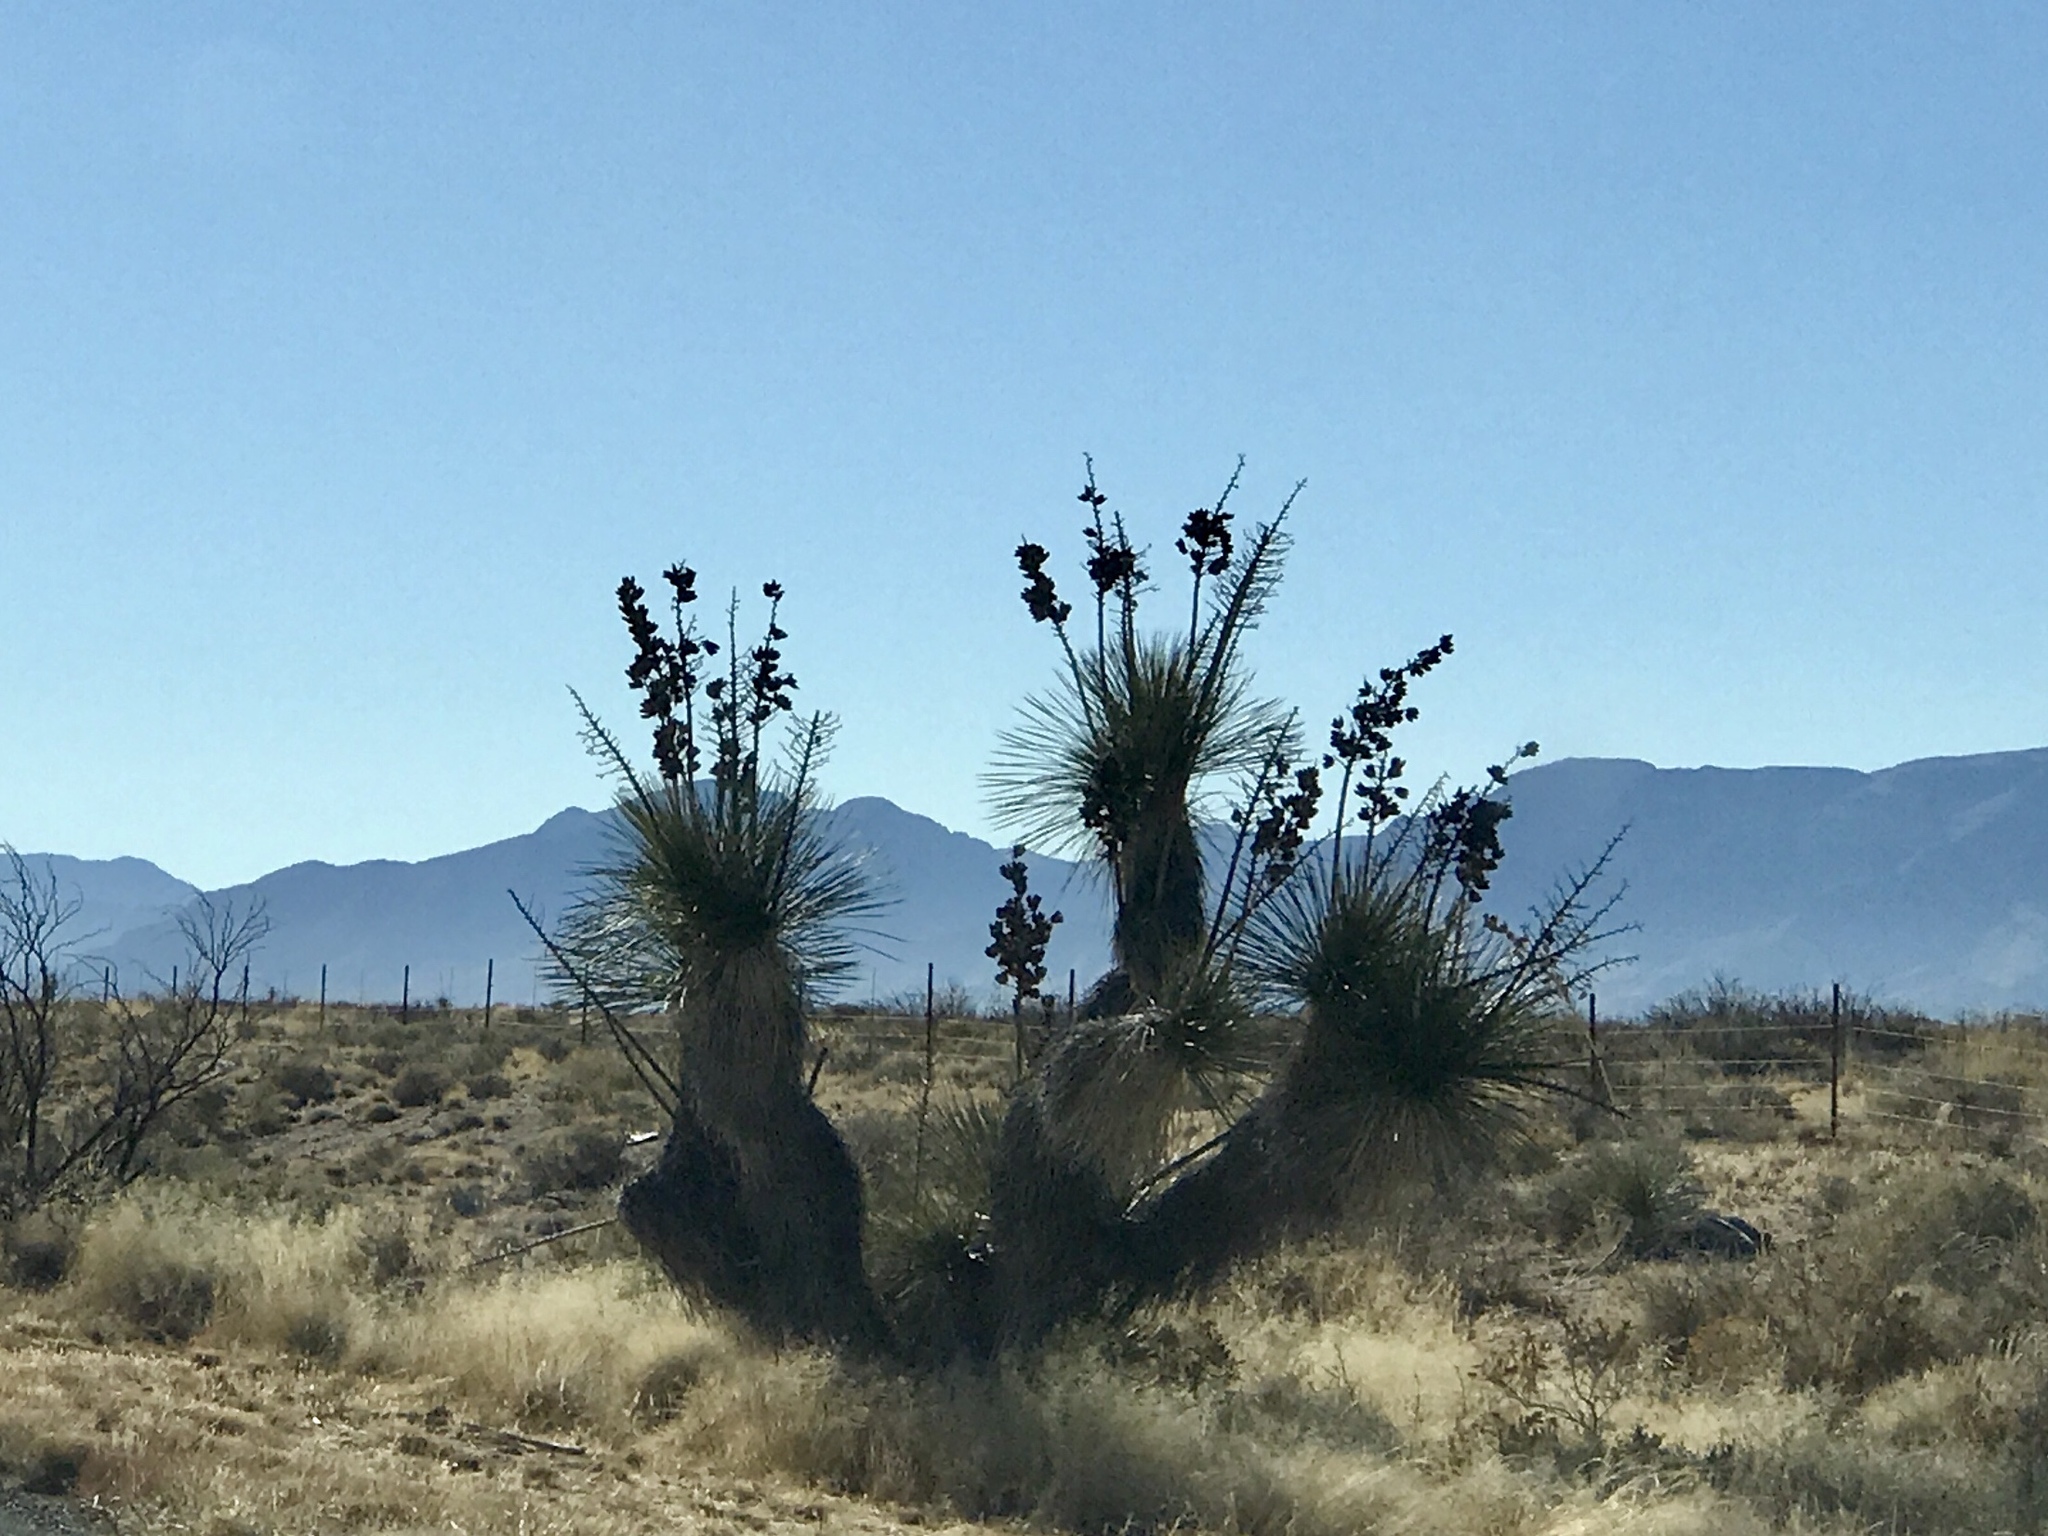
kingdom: Plantae
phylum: Tracheophyta
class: Liliopsida
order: Asparagales
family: Asparagaceae
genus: Yucca
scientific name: Yucca elata
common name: Palmella
